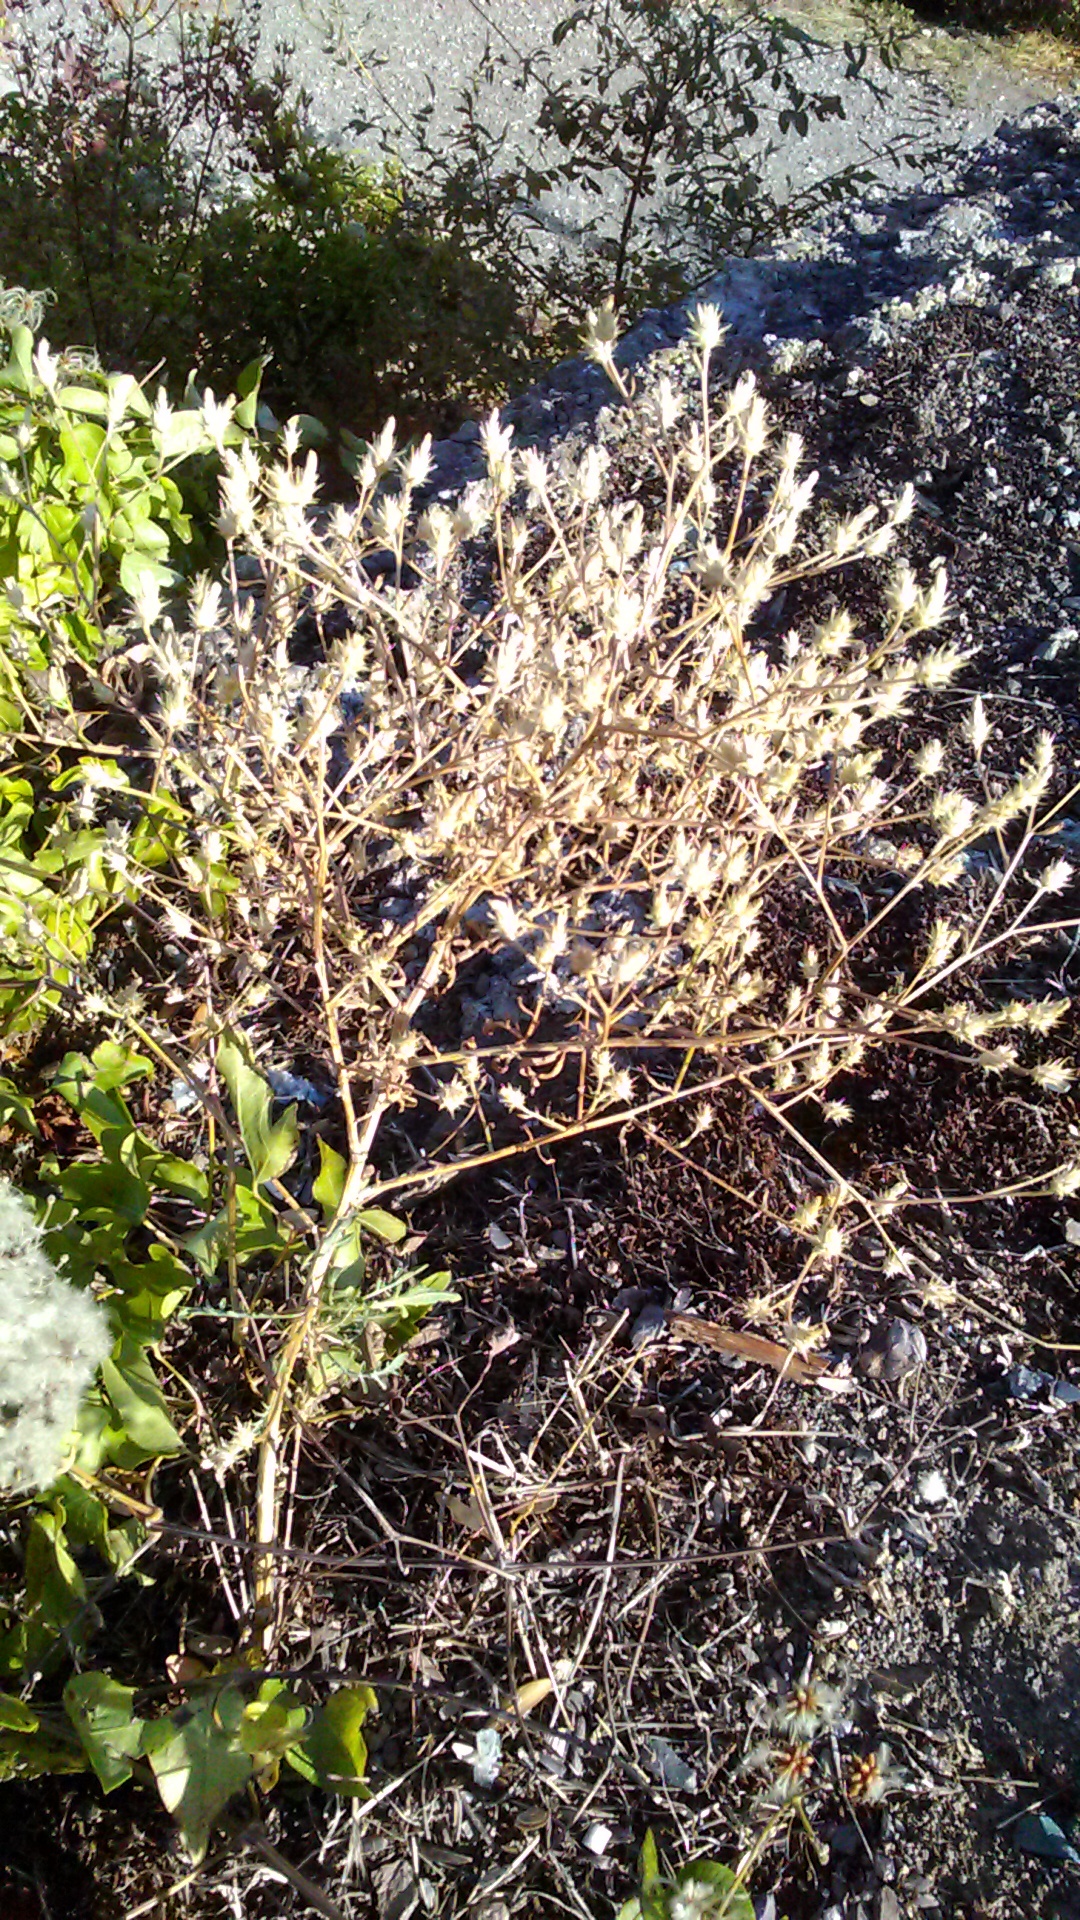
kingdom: Plantae
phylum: Tracheophyta
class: Magnoliopsida
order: Asterales
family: Asteraceae
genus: Centaurea
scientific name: Centaurea diffusa
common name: Diffuse knapweed
